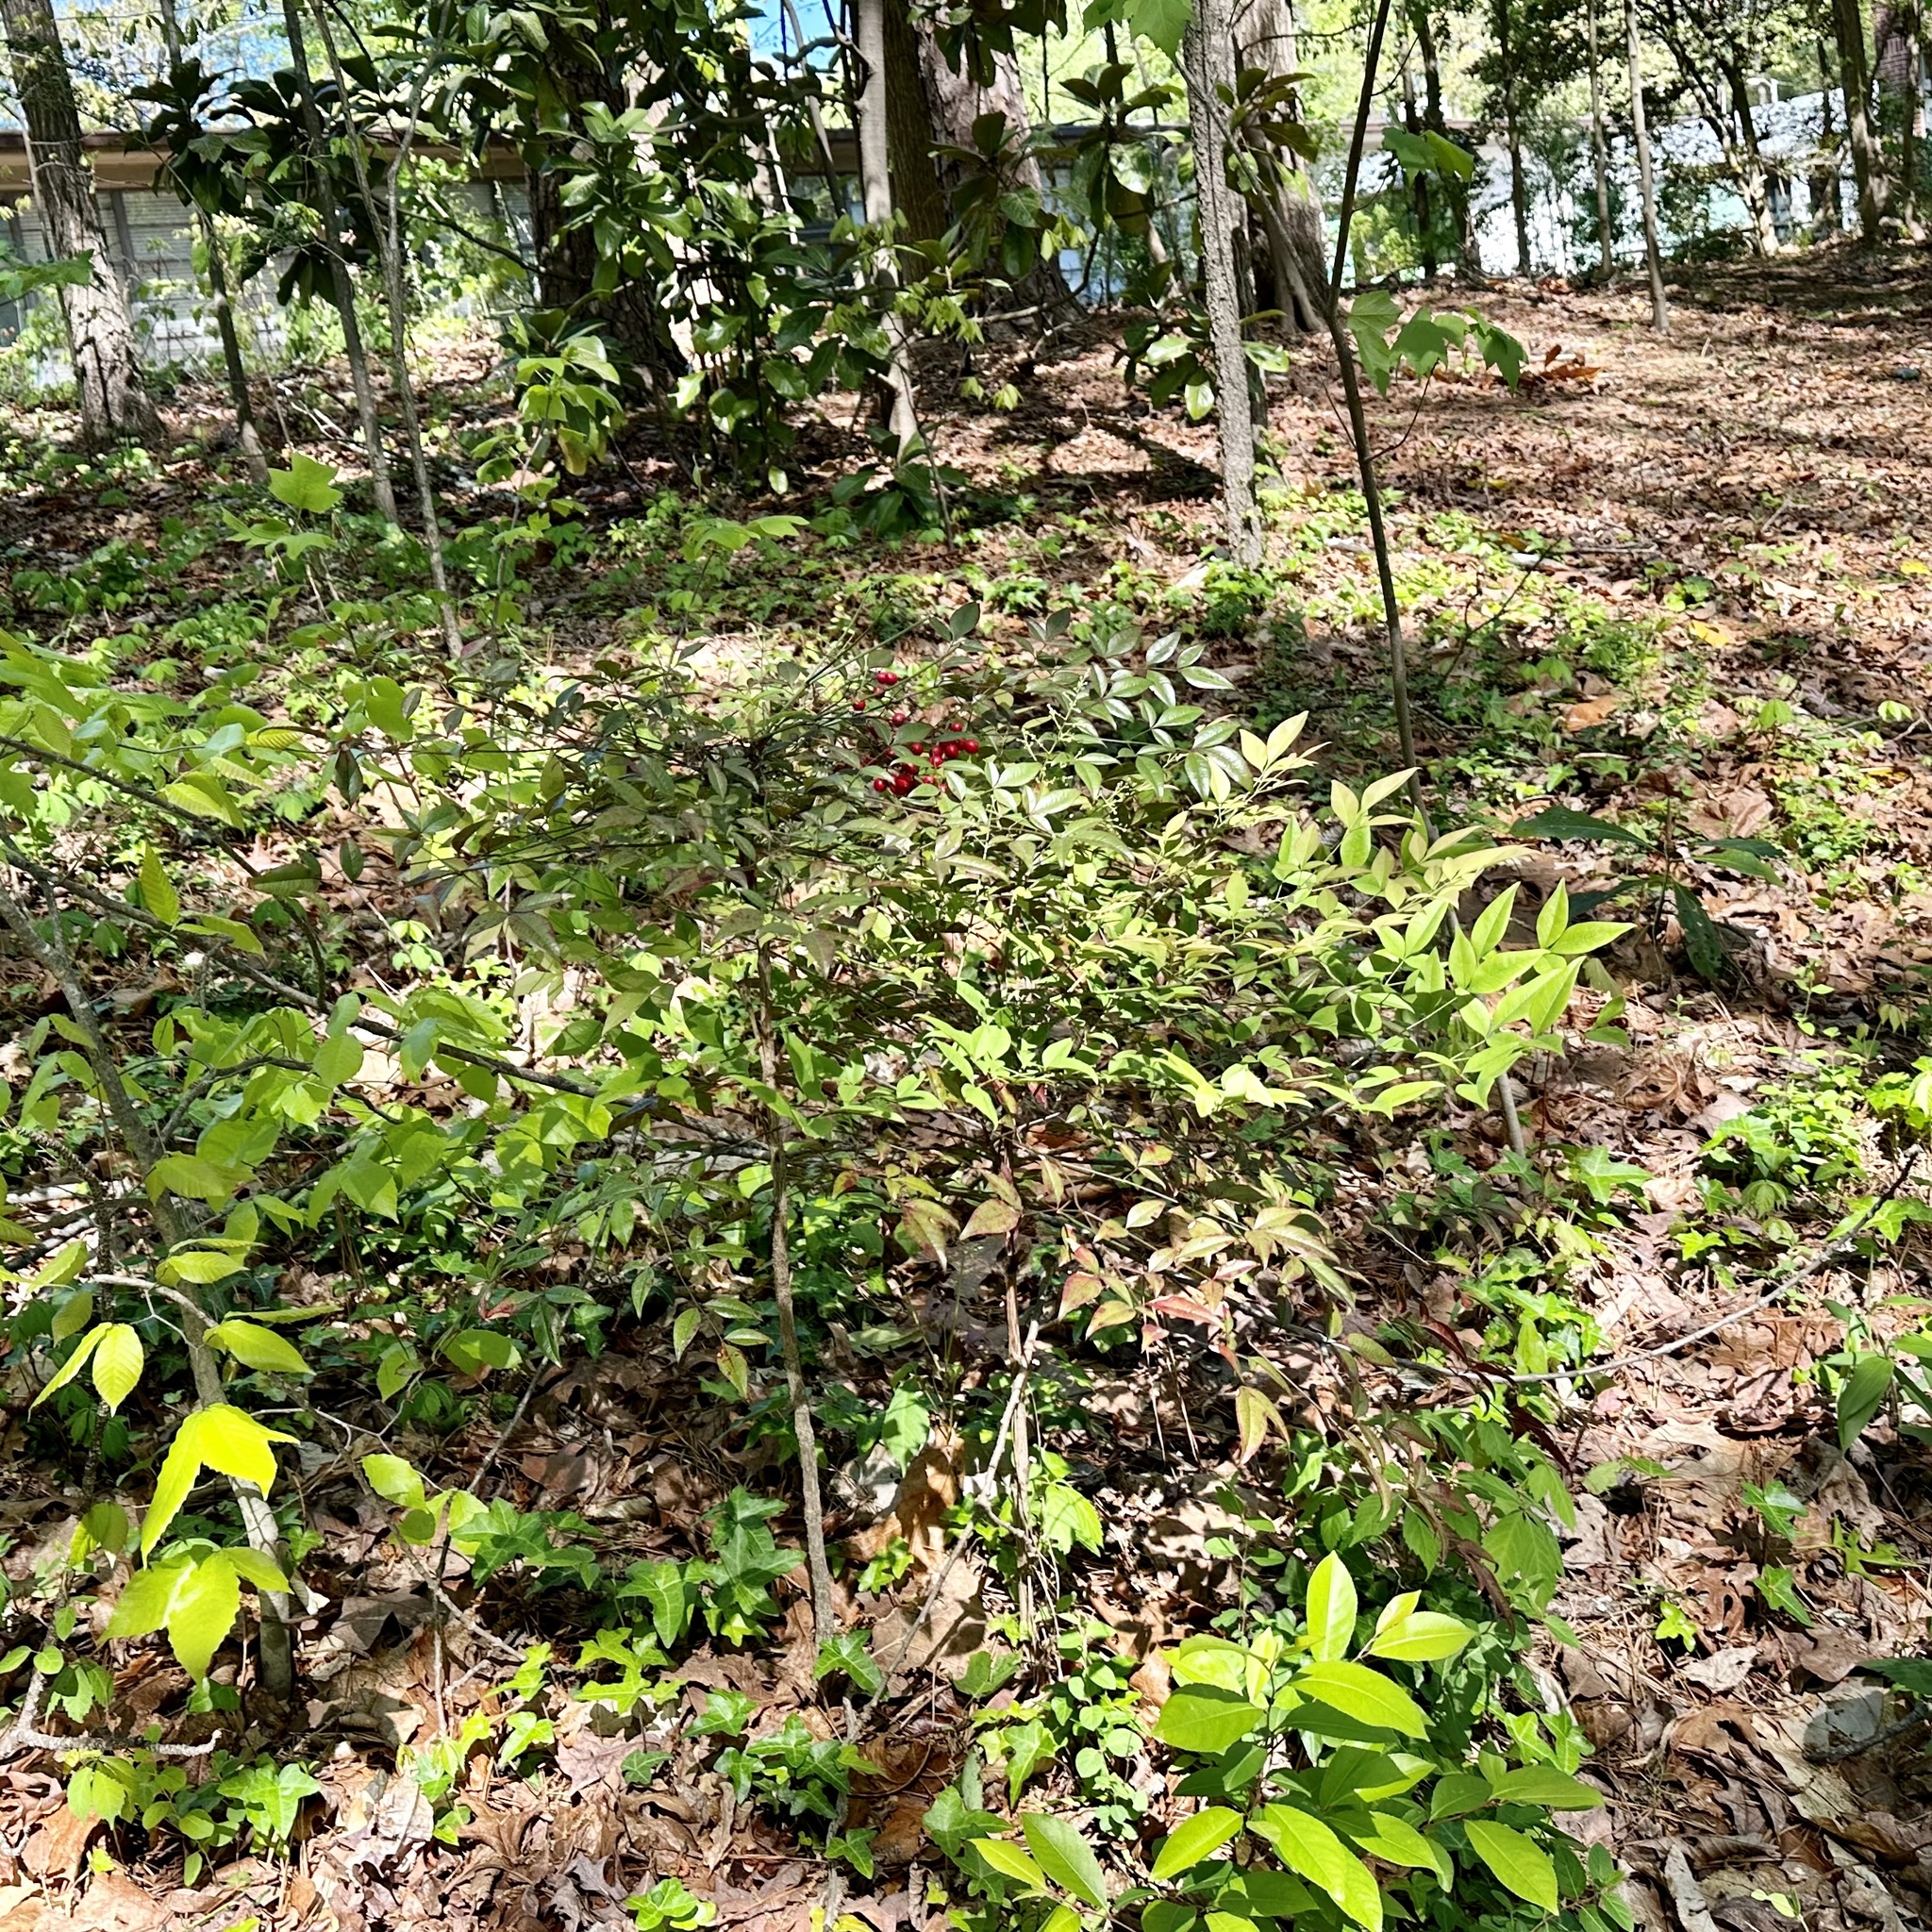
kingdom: Plantae
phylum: Tracheophyta
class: Magnoliopsida
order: Ranunculales
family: Berberidaceae
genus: Nandina
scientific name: Nandina domestica
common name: Sacred bamboo
